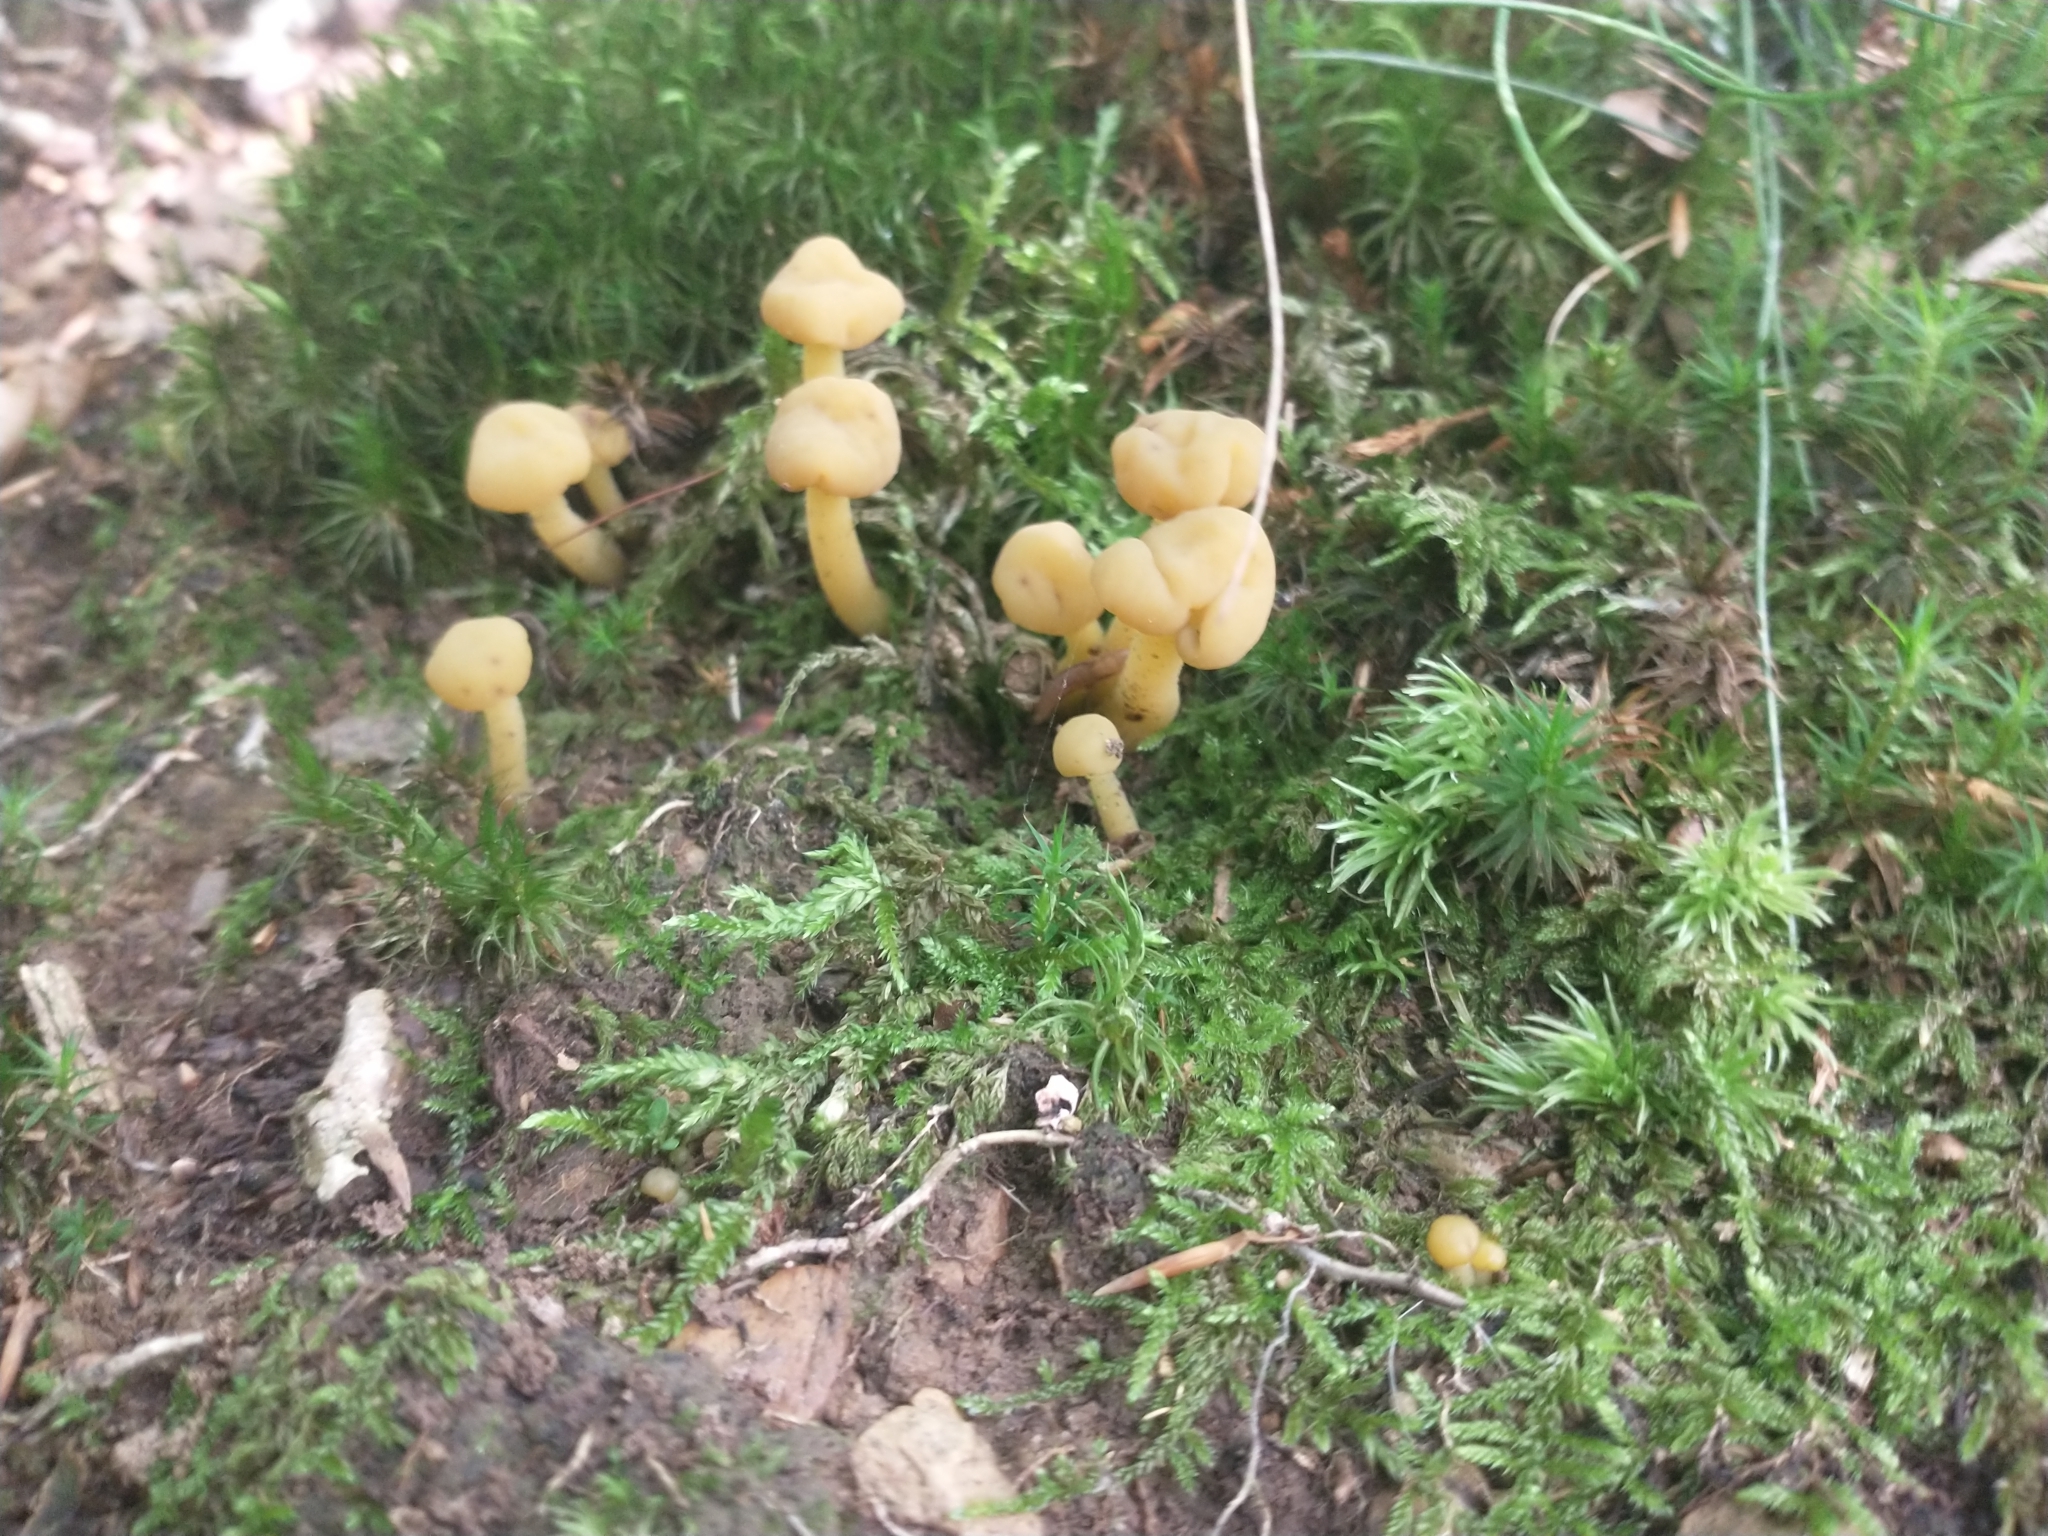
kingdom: Fungi
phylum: Ascomycota
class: Leotiomycetes
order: Leotiales
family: Leotiaceae
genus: Leotia
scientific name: Leotia lubrica
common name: Jellybaby
